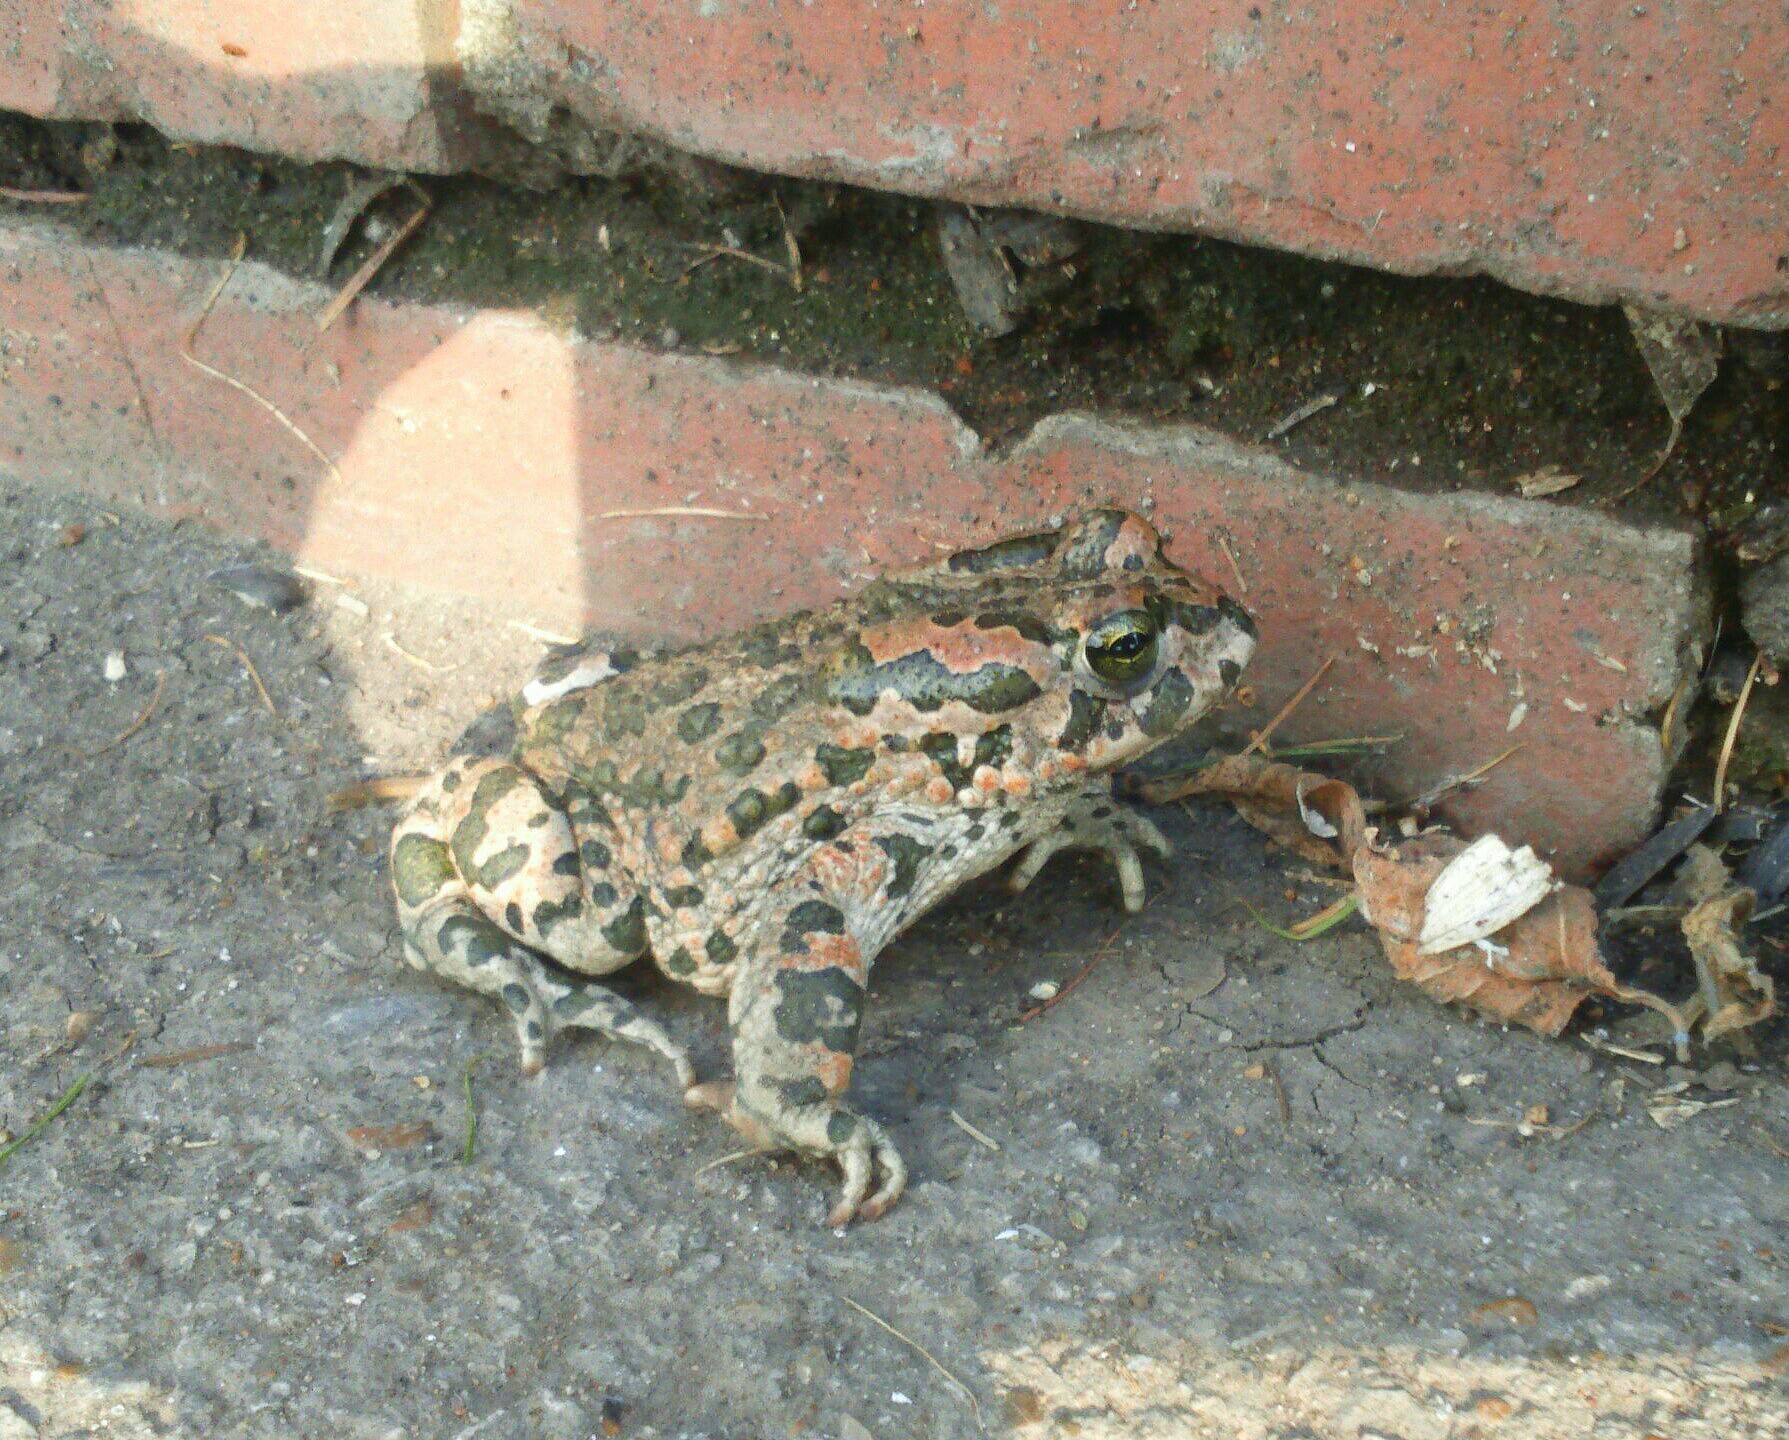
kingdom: Animalia
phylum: Chordata
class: Amphibia
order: Anura
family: Bufonidae
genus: Bufotes
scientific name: Bufotes viridis
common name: European green toad
